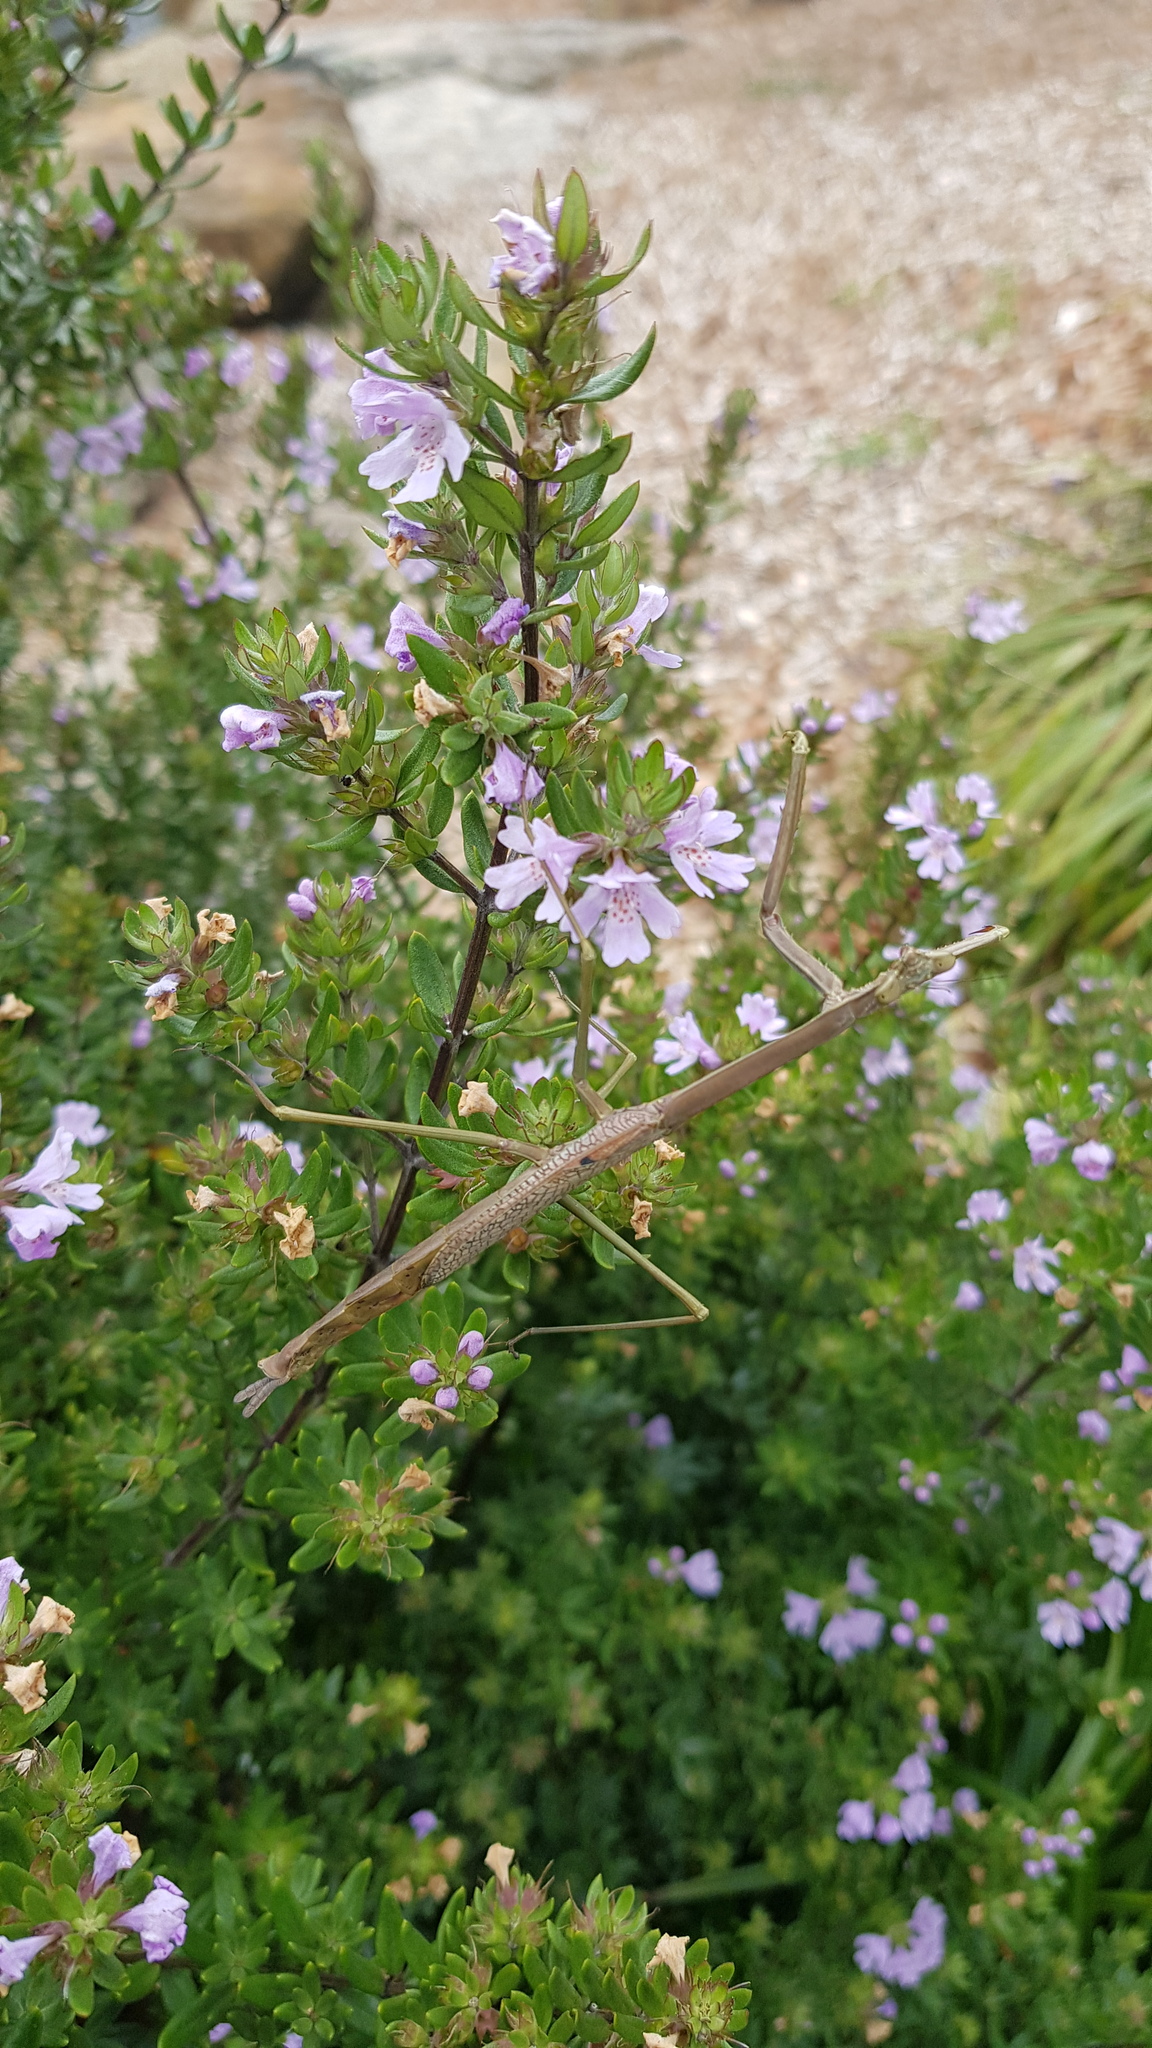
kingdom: Animalia
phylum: Arthropoda
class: Insecta
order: Mantodea
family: Mantidae
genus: Archimantis
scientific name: Archimantis latistyla
